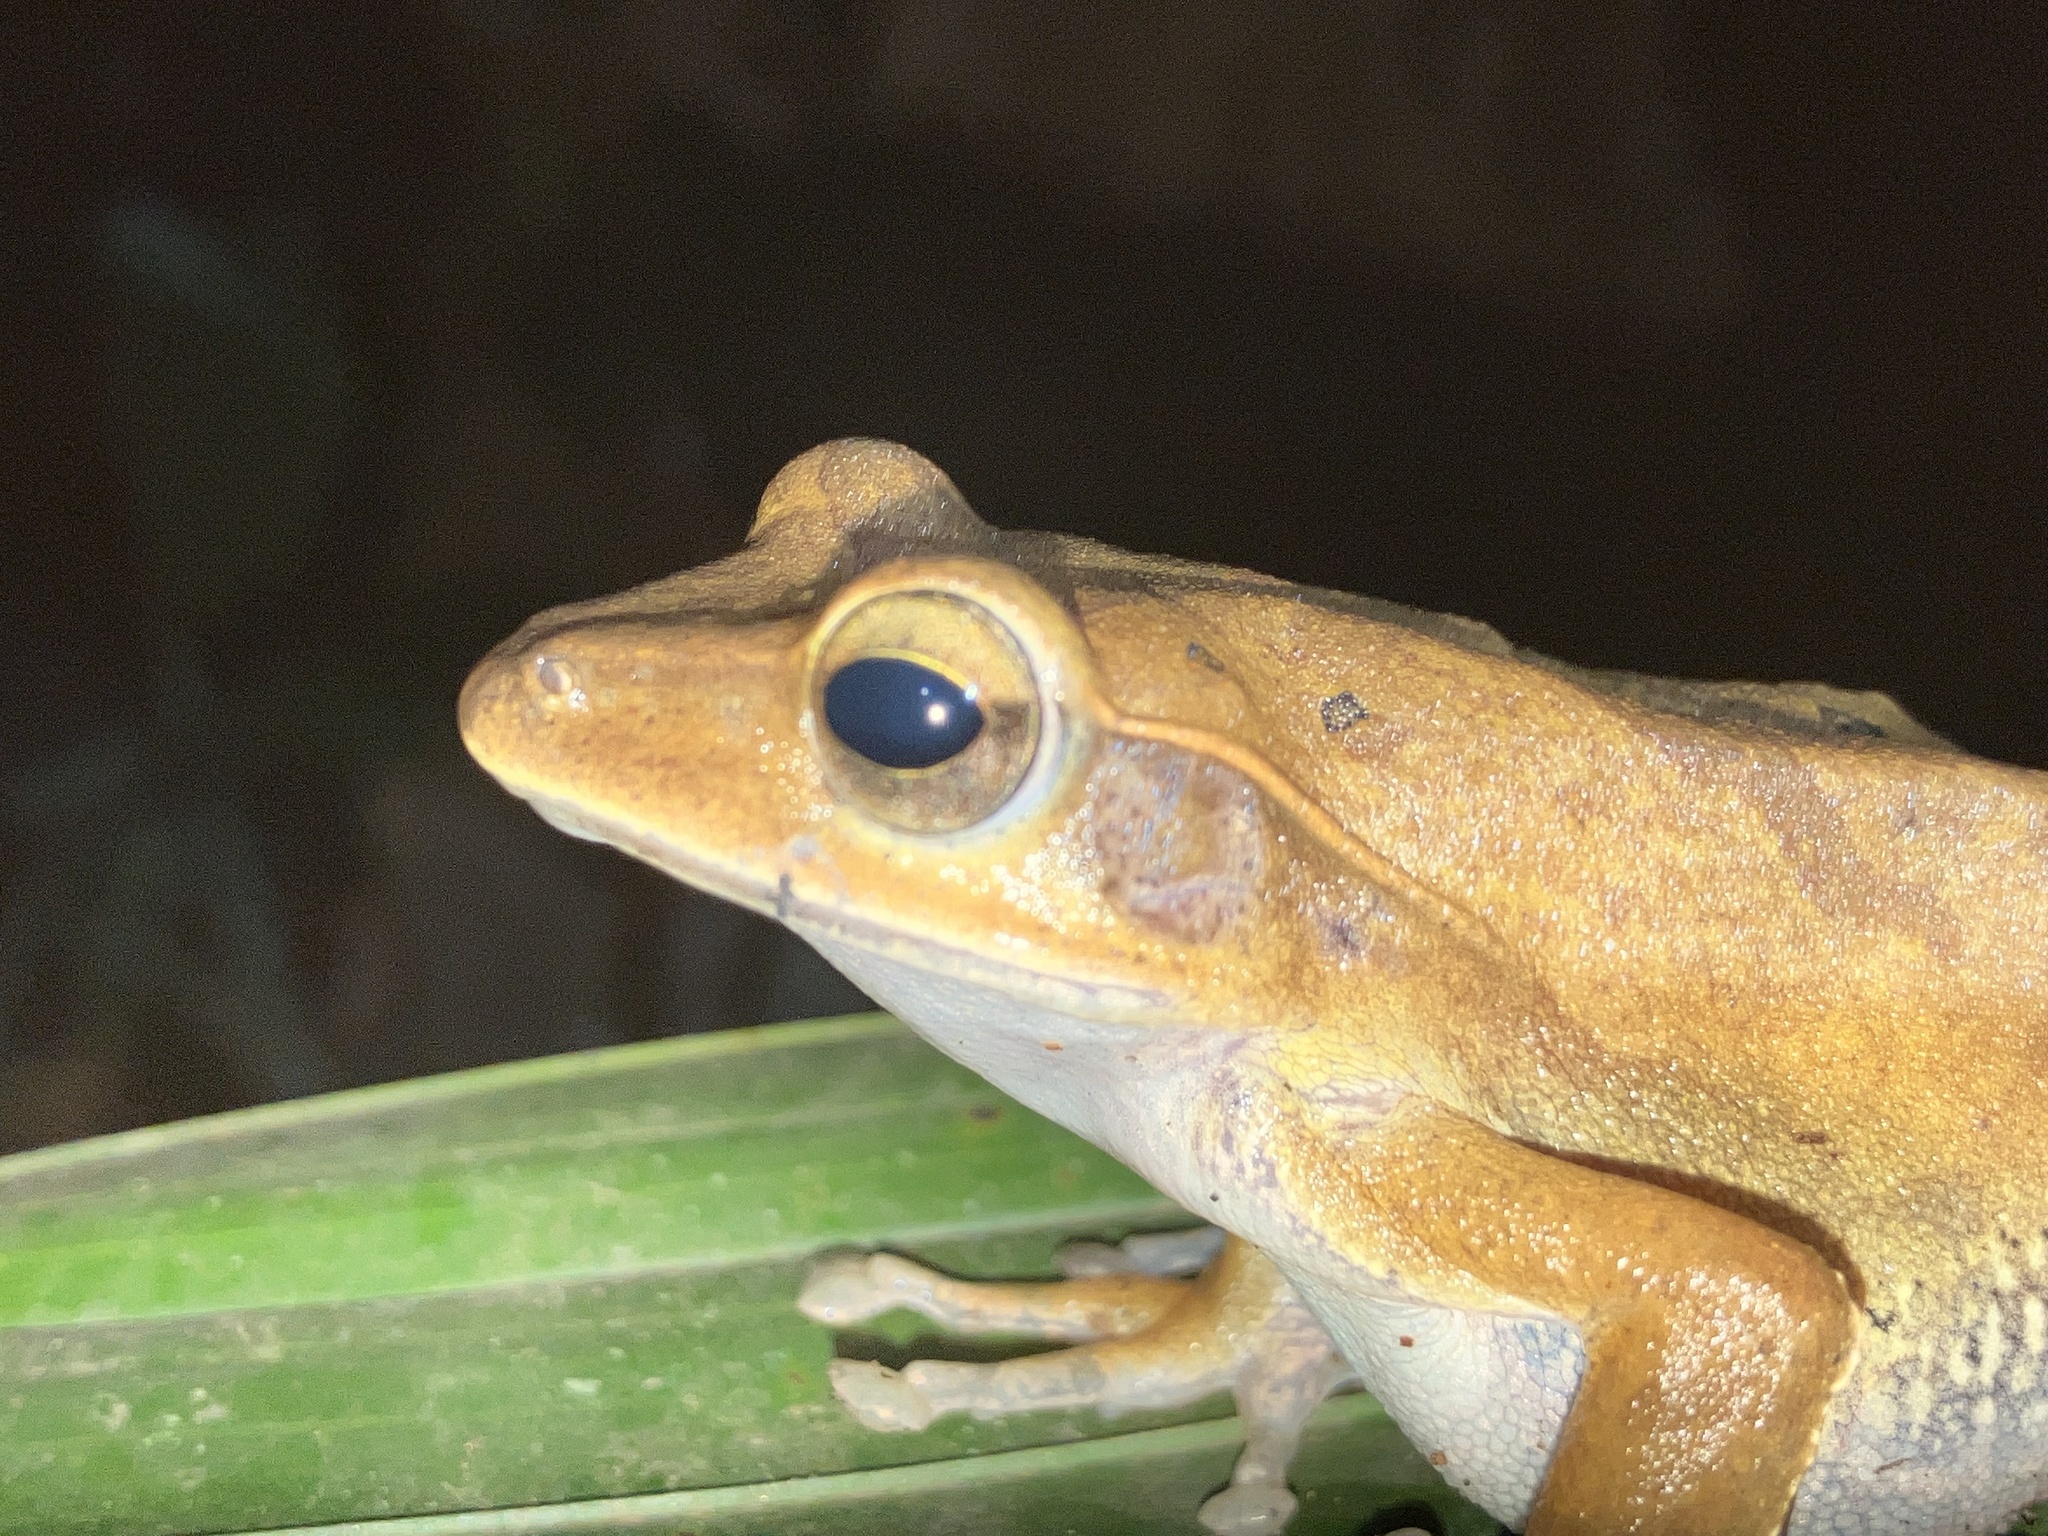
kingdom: Animalia
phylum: Chordata
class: Amphibia
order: Anura
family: Rhacophoridae
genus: Polypedates
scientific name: Polypedates occidentalis
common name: Charpa tree frog
